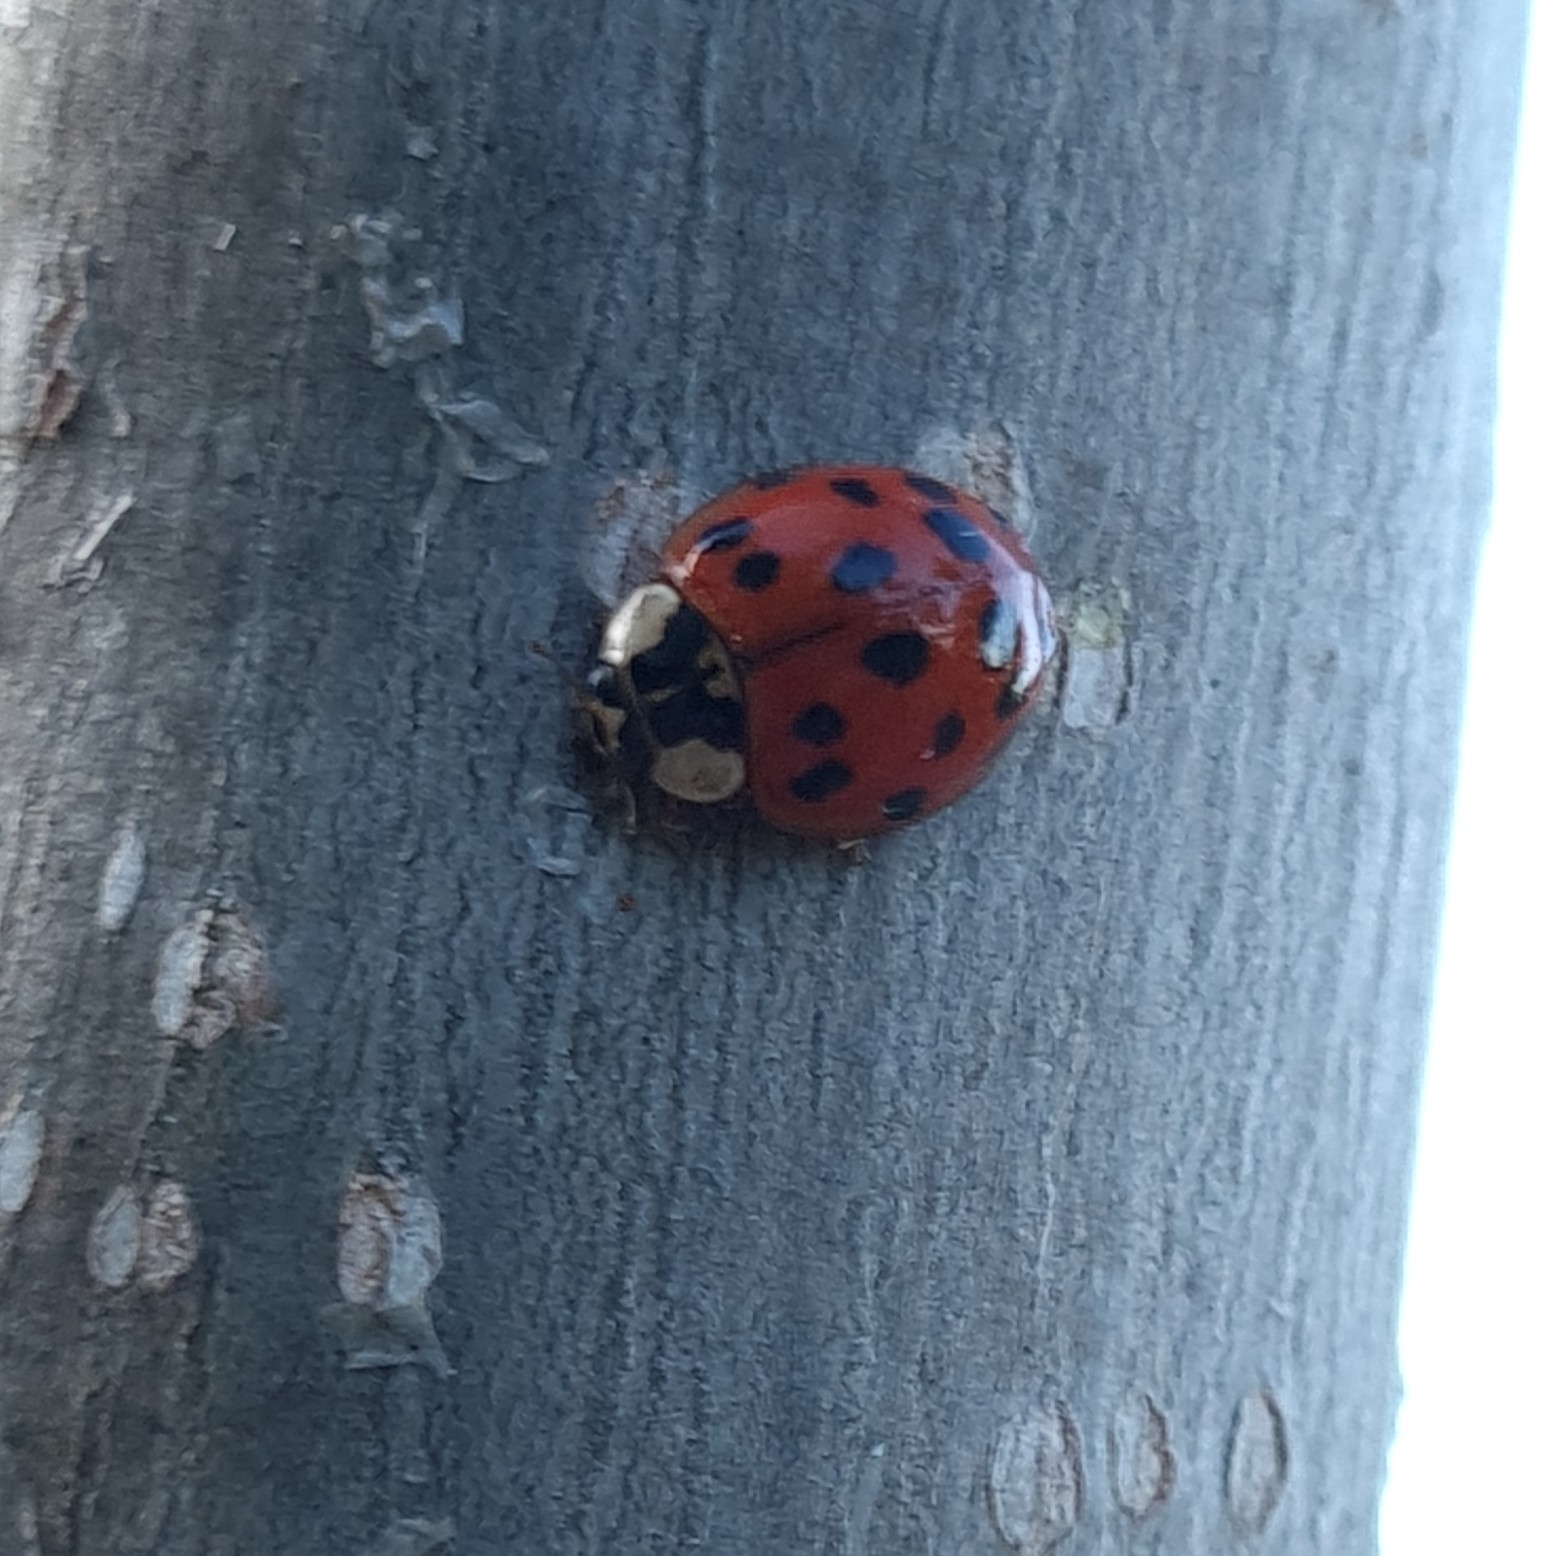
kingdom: Animalia
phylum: Arthropoda
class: Insecta
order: Coleoptera
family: Coccinellidae
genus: Harmonia
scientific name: Harmonia axyridis
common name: Harlequin ladybird
